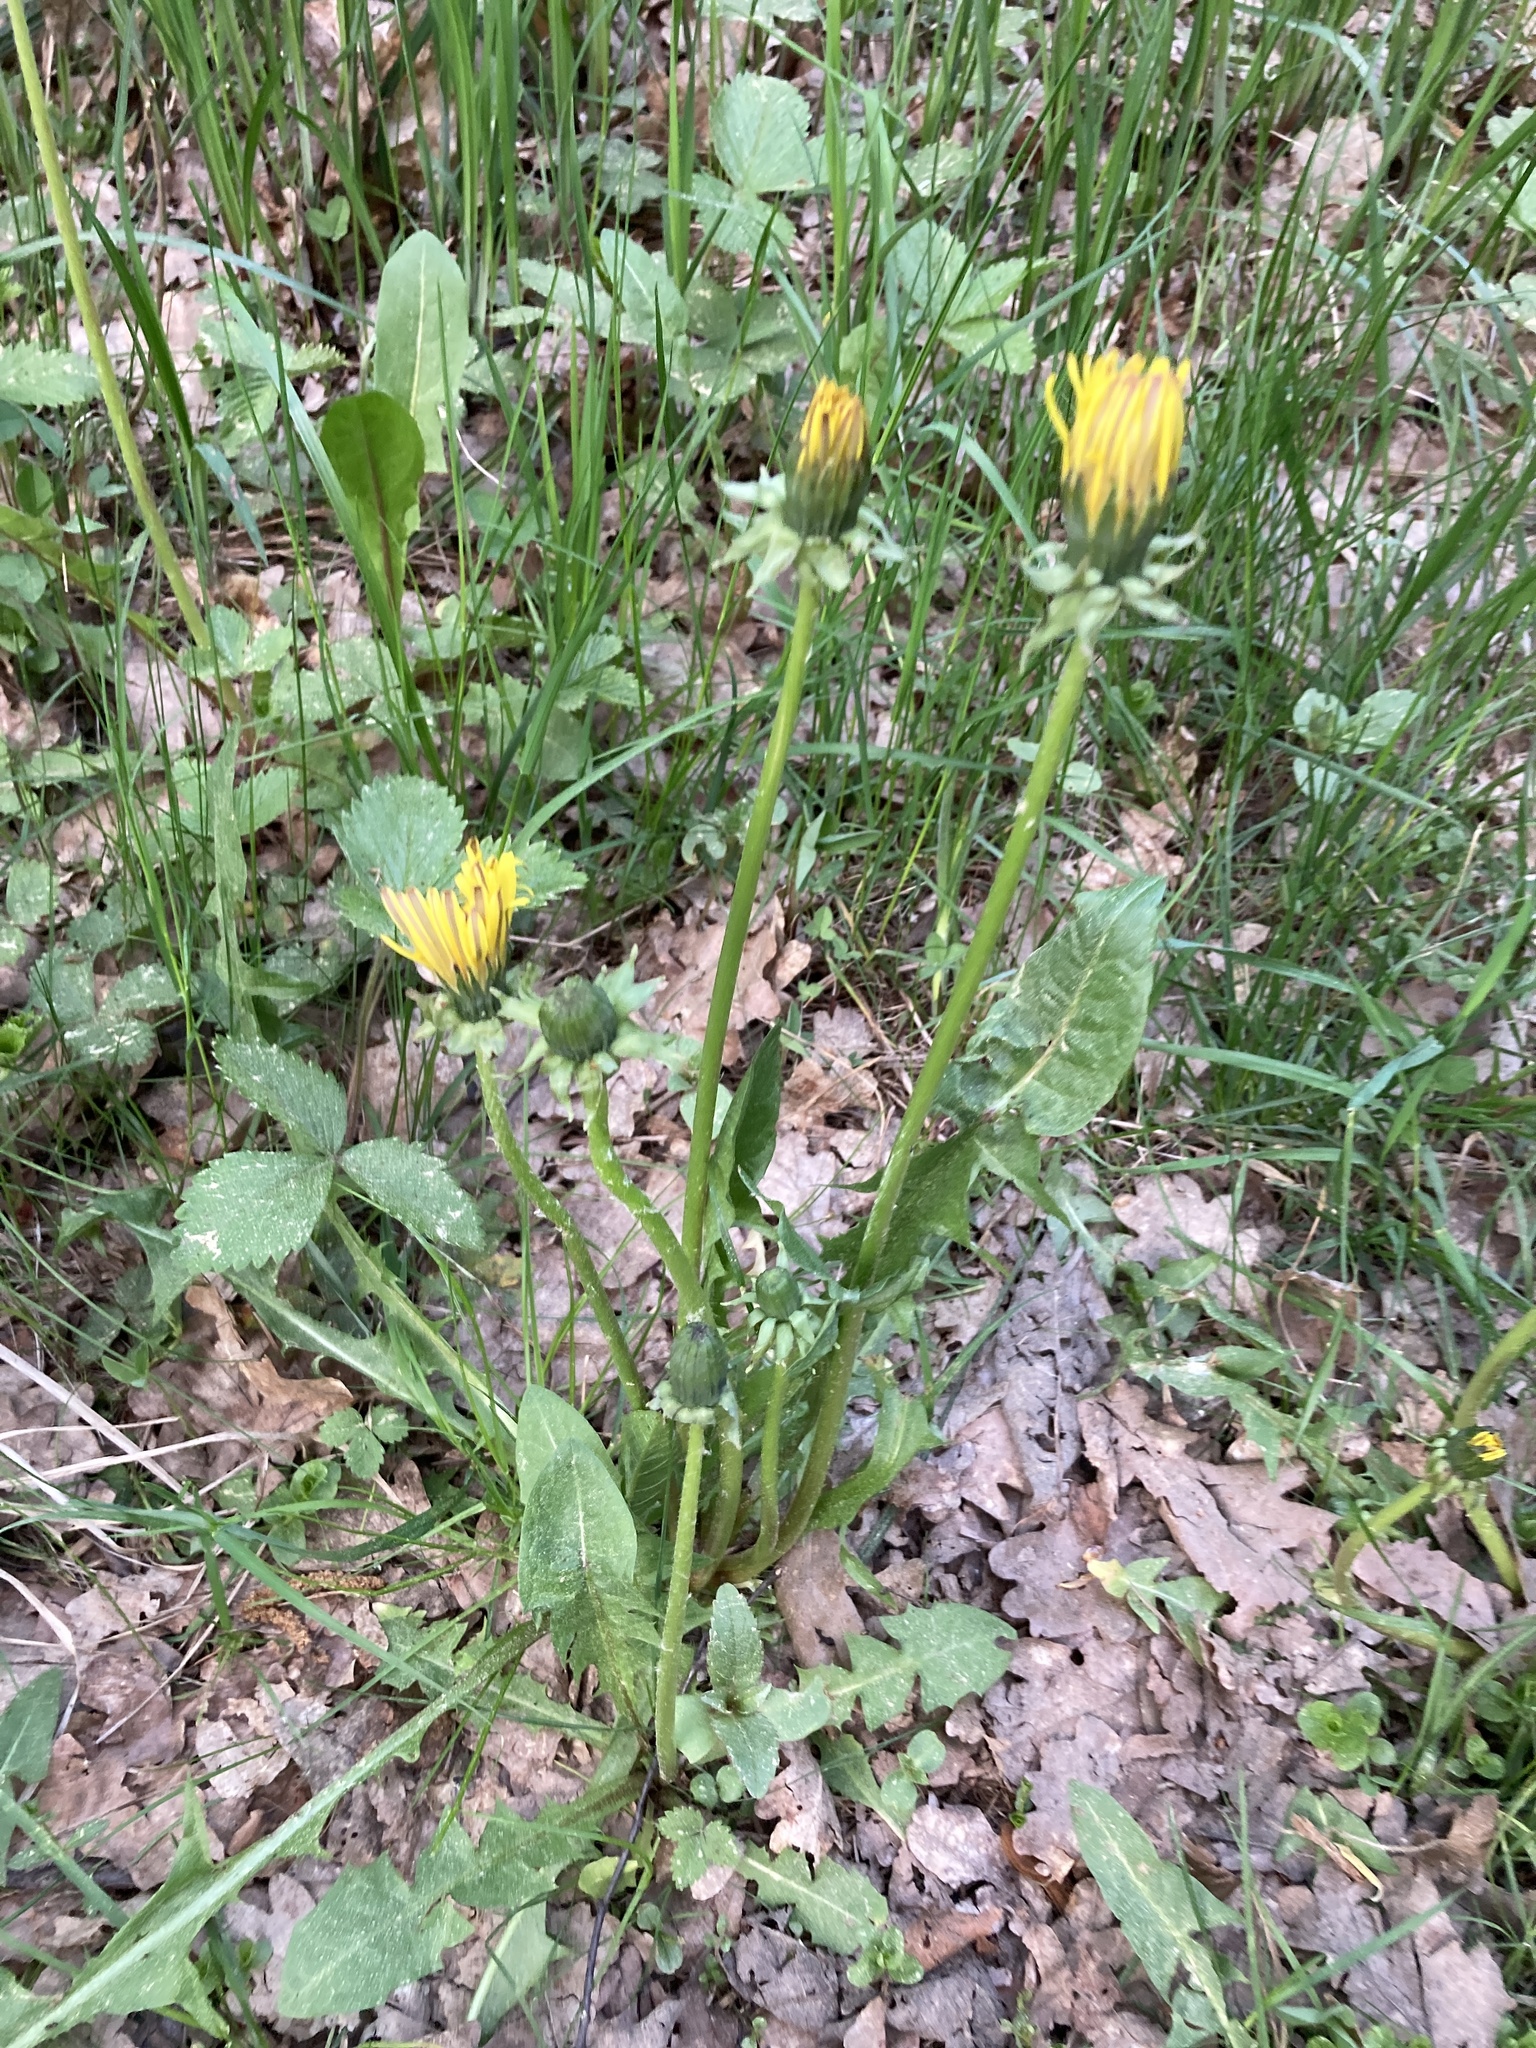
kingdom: Plantae
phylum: Tracheophyta
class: Magnoliopsida
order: Asterales
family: Asteraceae
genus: Taraxacum
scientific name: Taraxacum officinale
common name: Common dandelion
